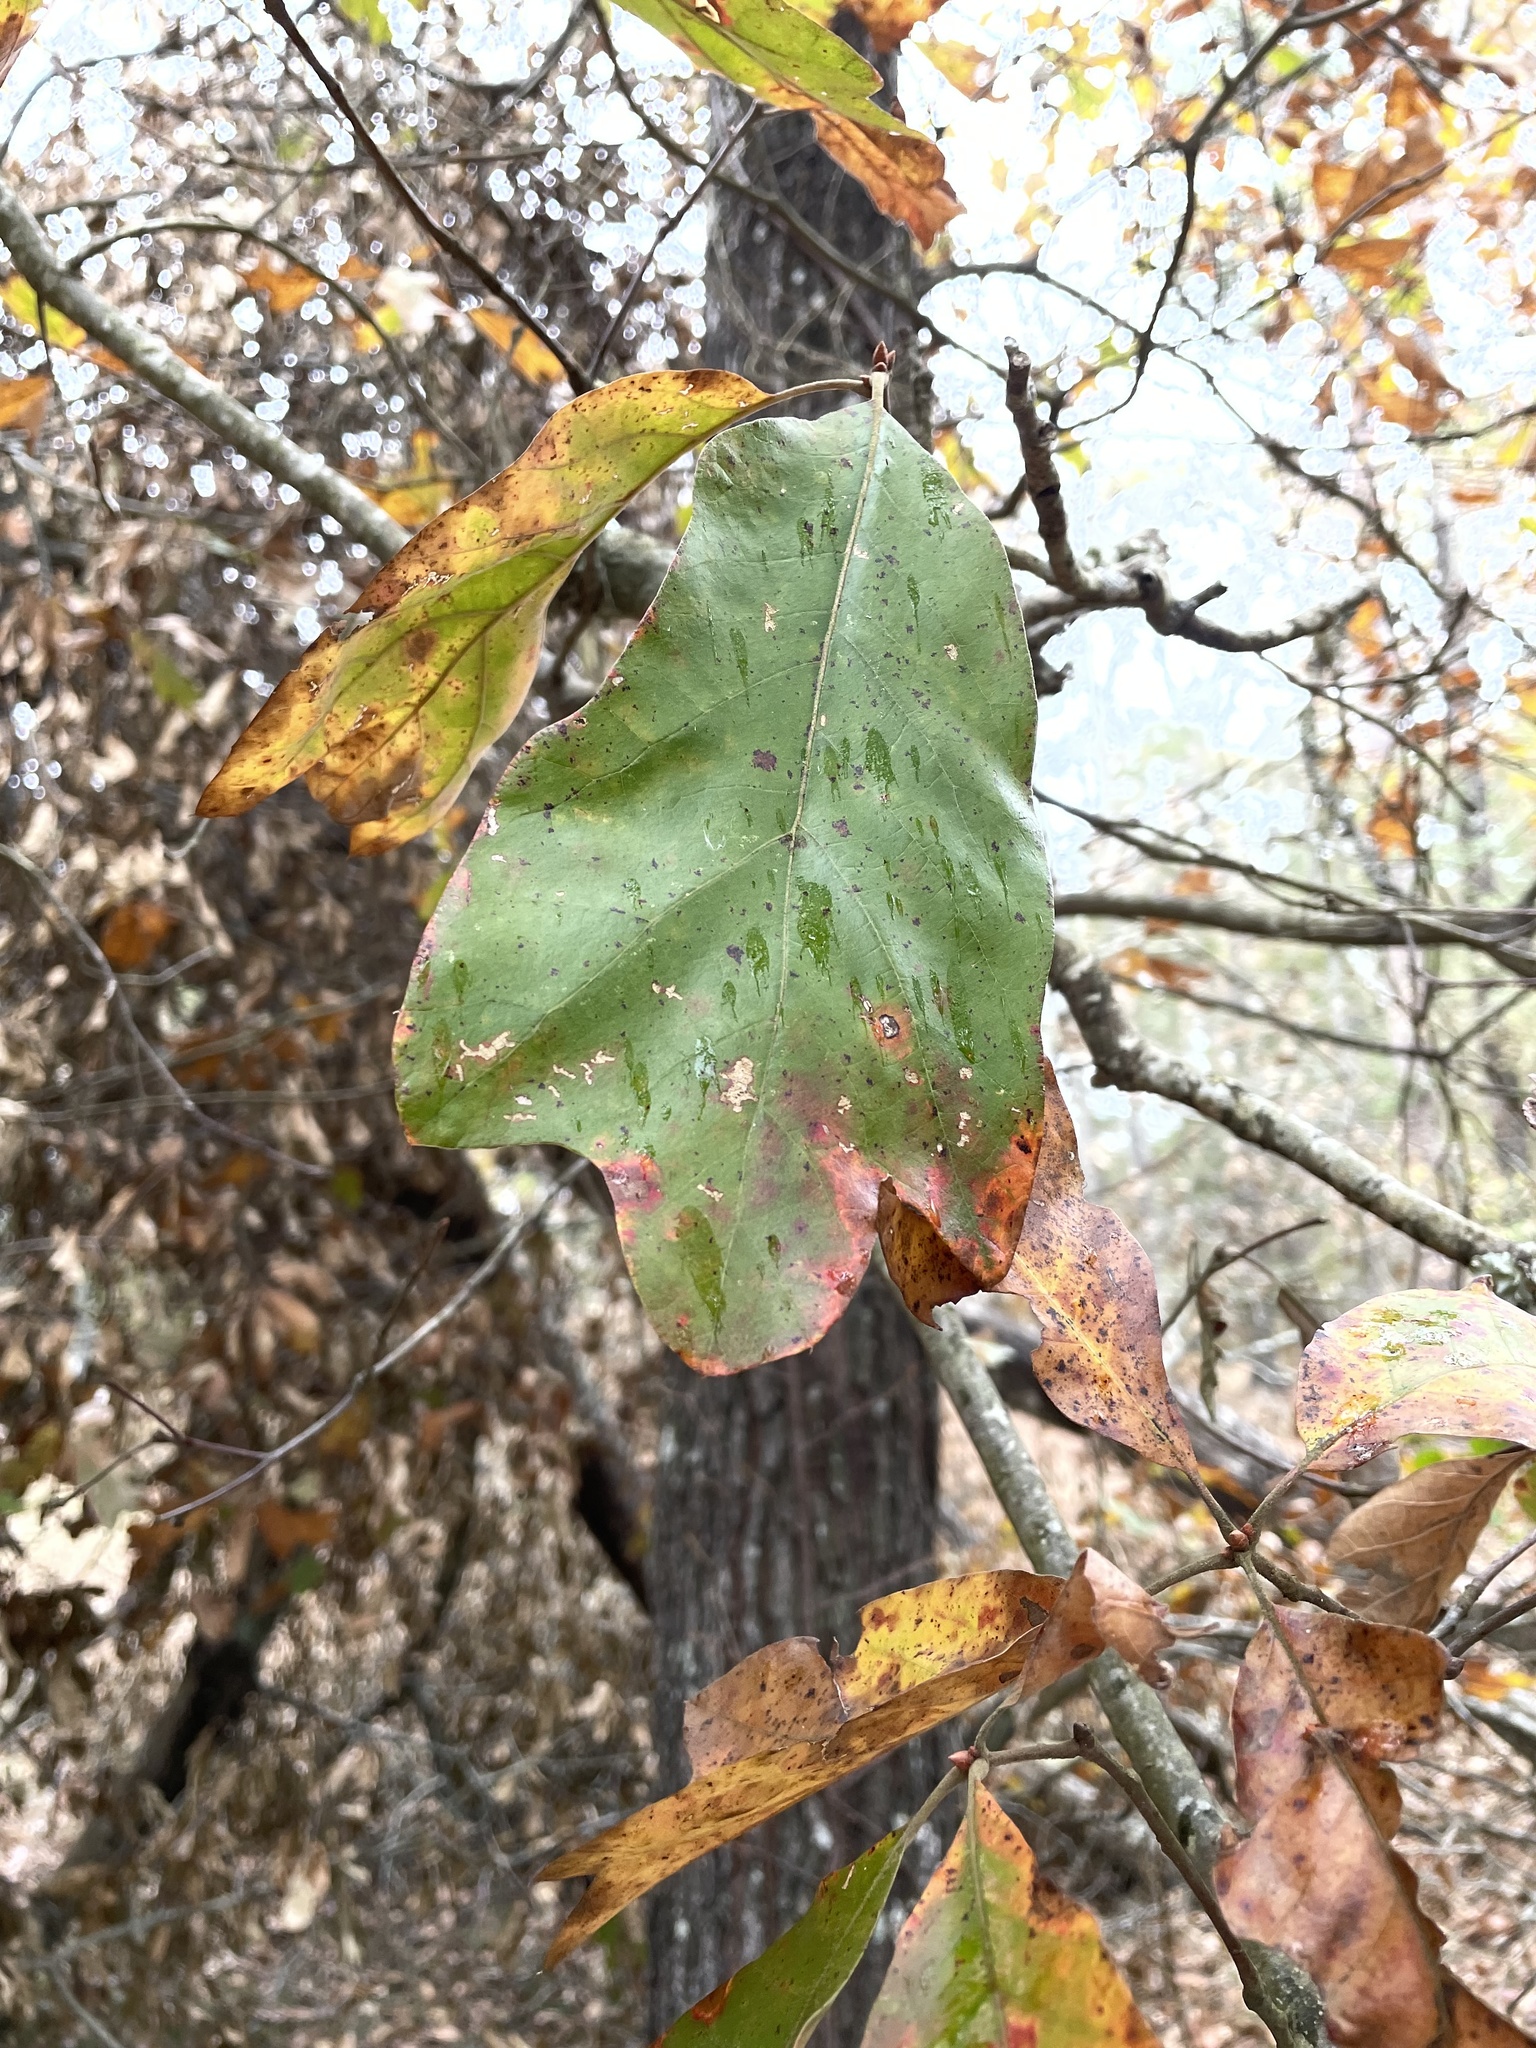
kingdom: Plantae
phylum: Tracheophyta
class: Magnoliopsida
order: Fagales
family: Fagaceae
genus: Quercus
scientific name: Quercus falcata
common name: Southern red oak
